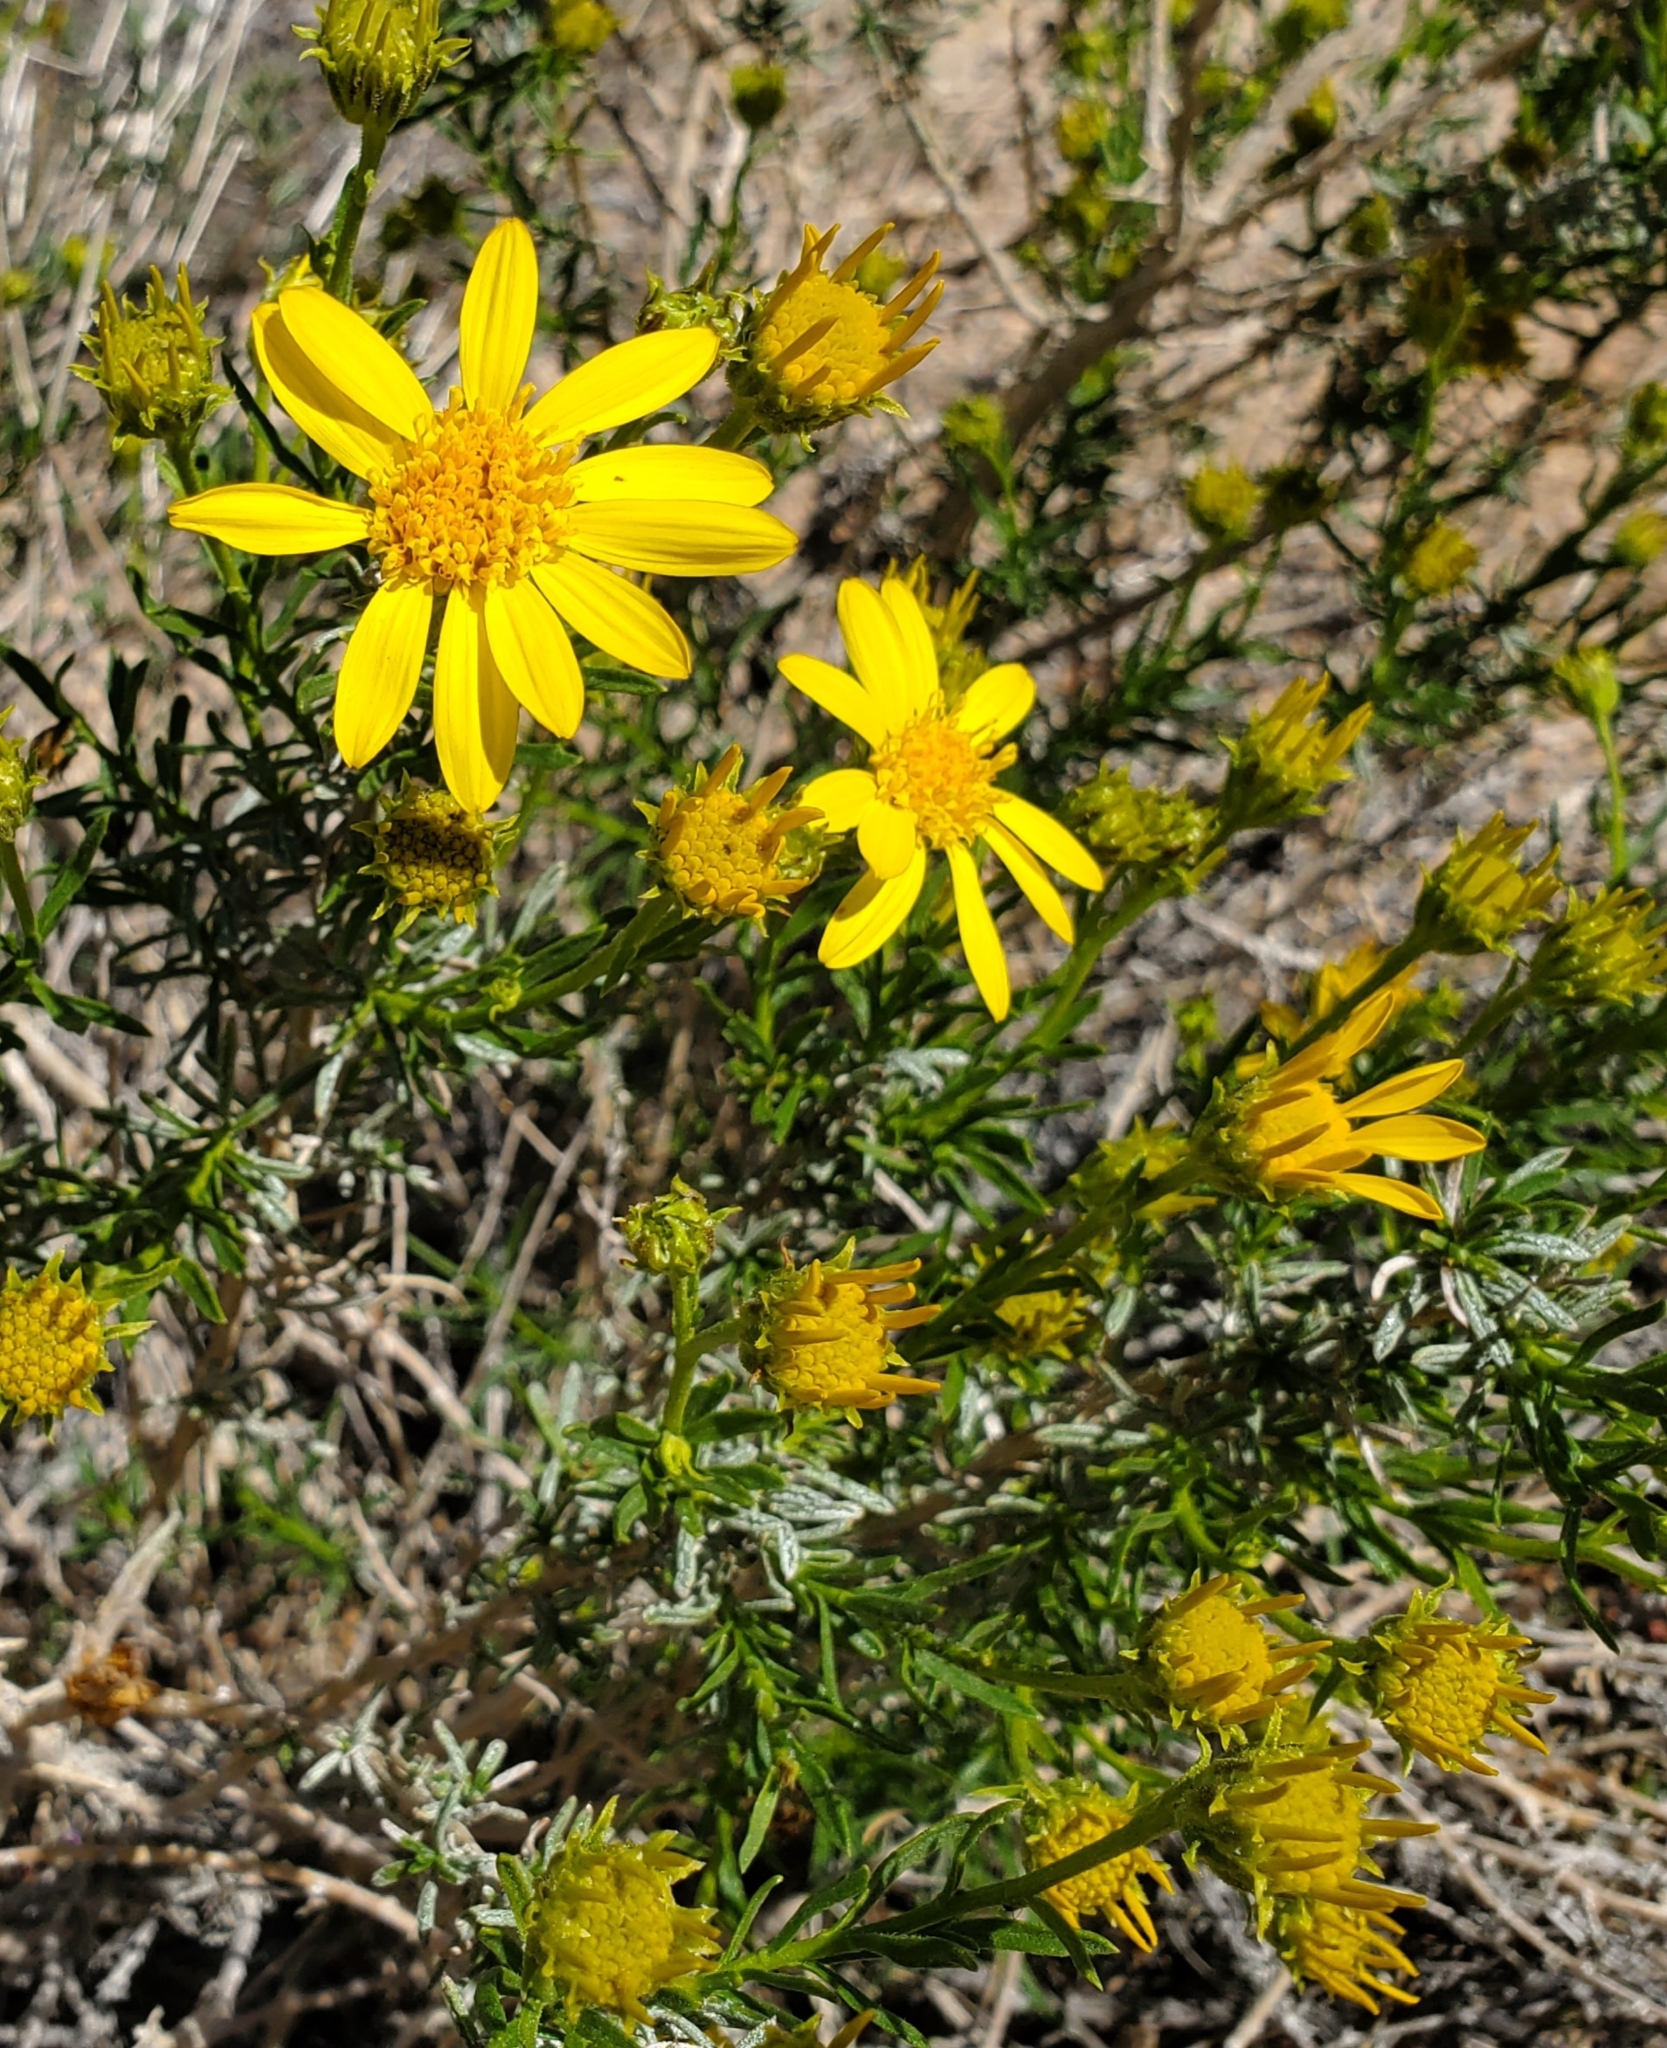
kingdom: Plantae
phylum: Tracheophyta
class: Magnoliopsida
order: Asterales
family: Asteraceae
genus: Ericameria
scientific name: Ericameria linearifolia
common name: Interior goldenbush
